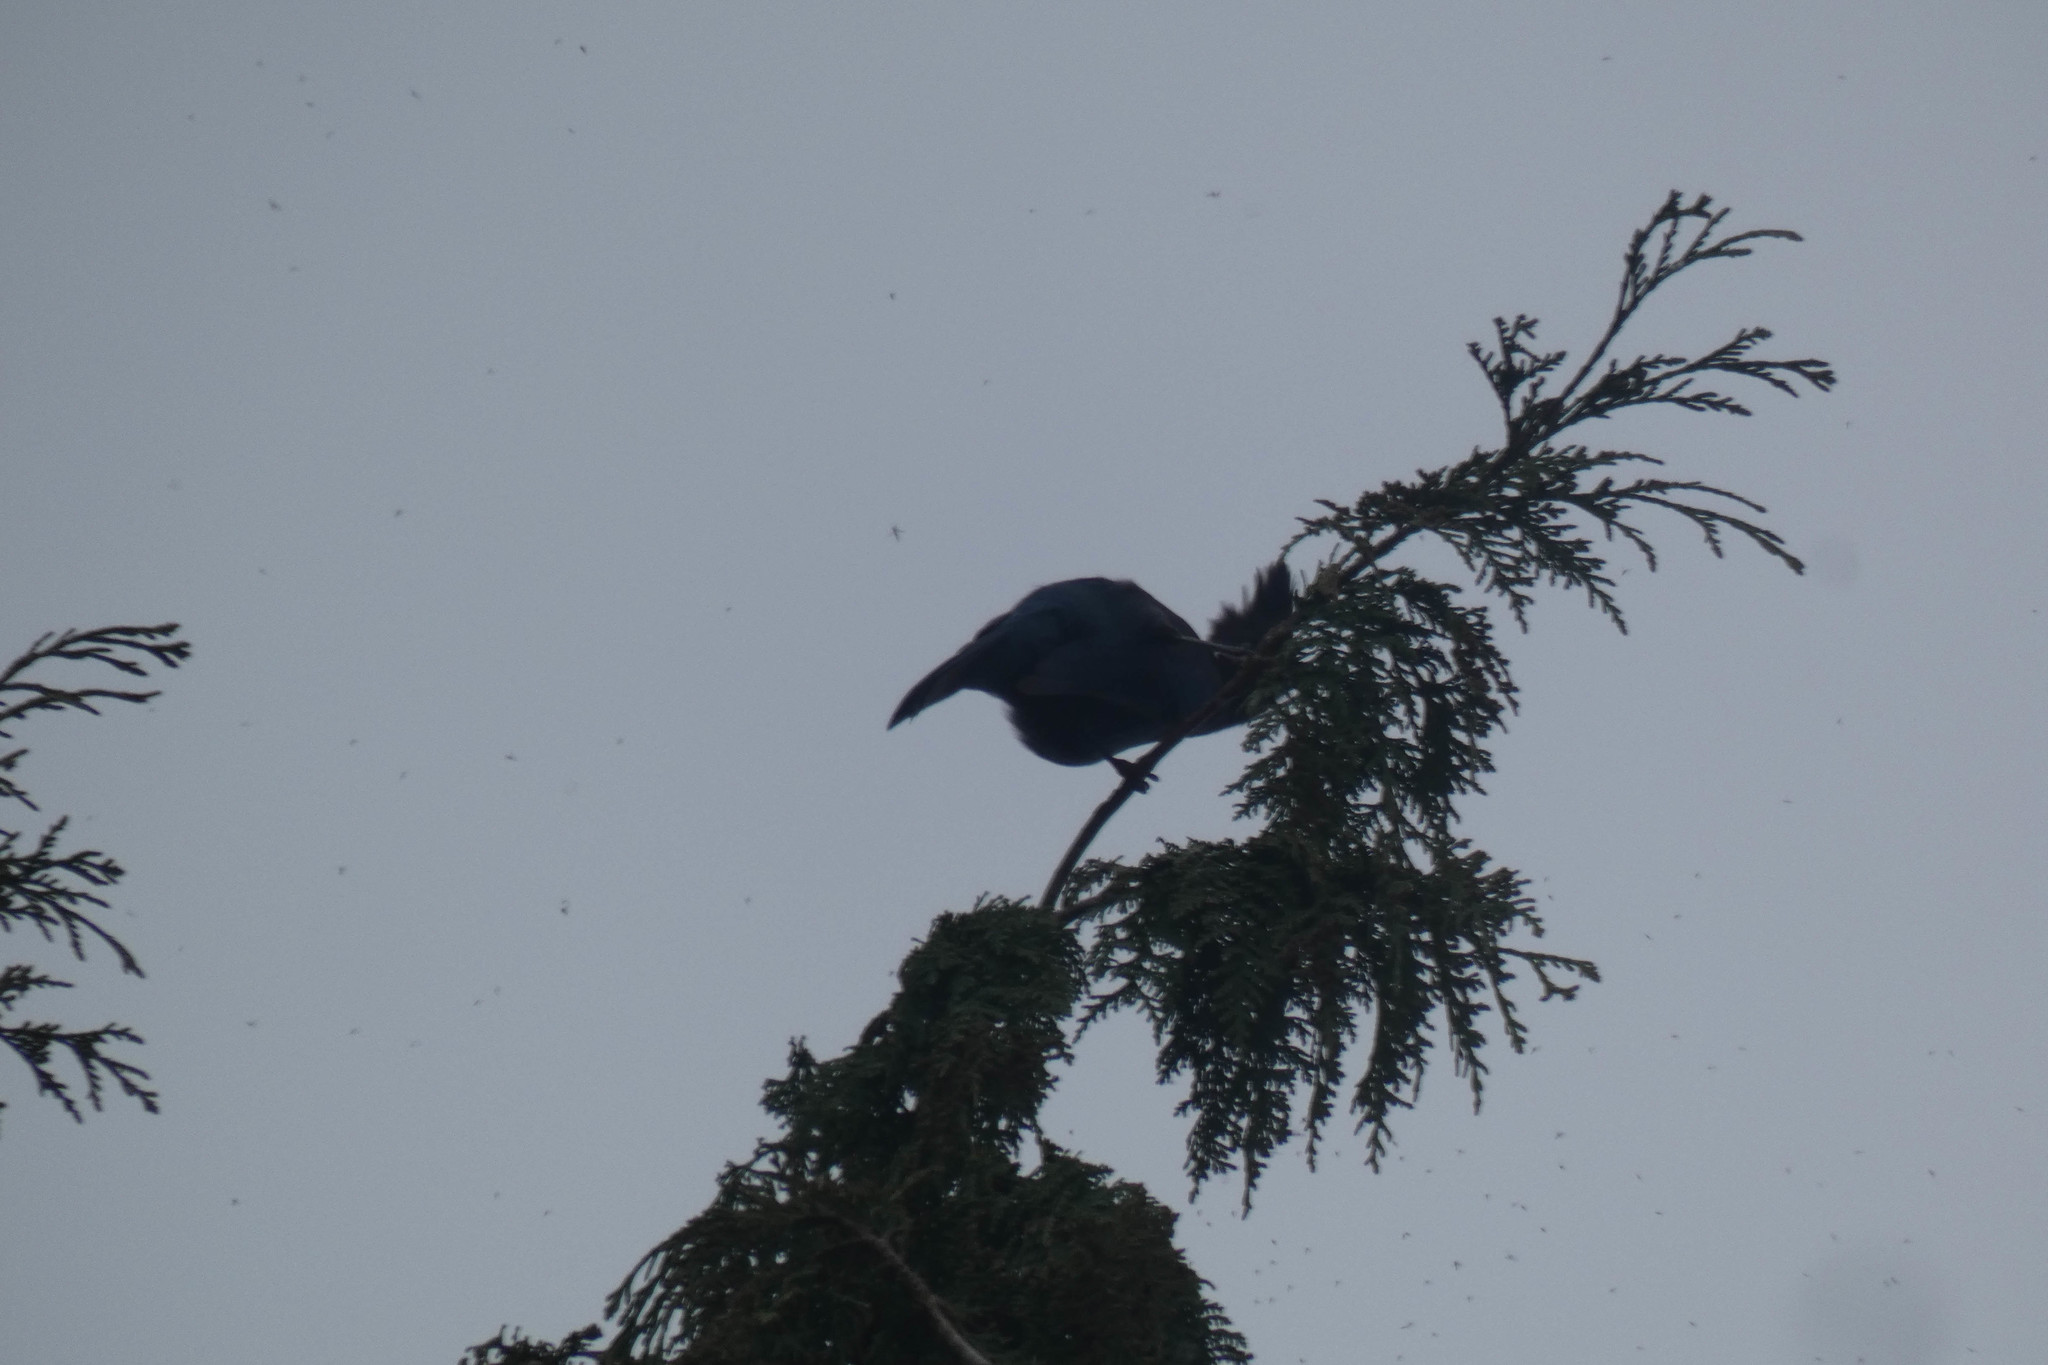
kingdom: Animalia
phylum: Chordata
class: Aves
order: Passeriformes
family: Corvidae
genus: Cyanocitta
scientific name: Cyanocitta stelleri
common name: Steller's jay
